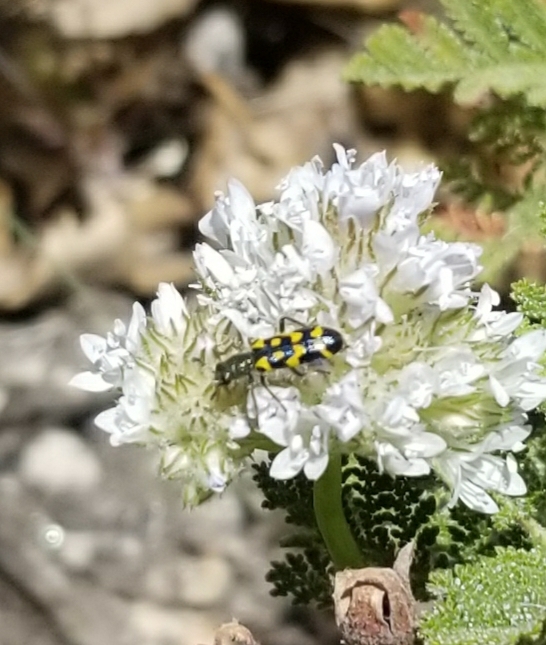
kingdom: Animalia
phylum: Arthropoda
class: Insecta
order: Coleoptera
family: Cleridae
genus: Trichodes
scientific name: Trichodes ornatus
